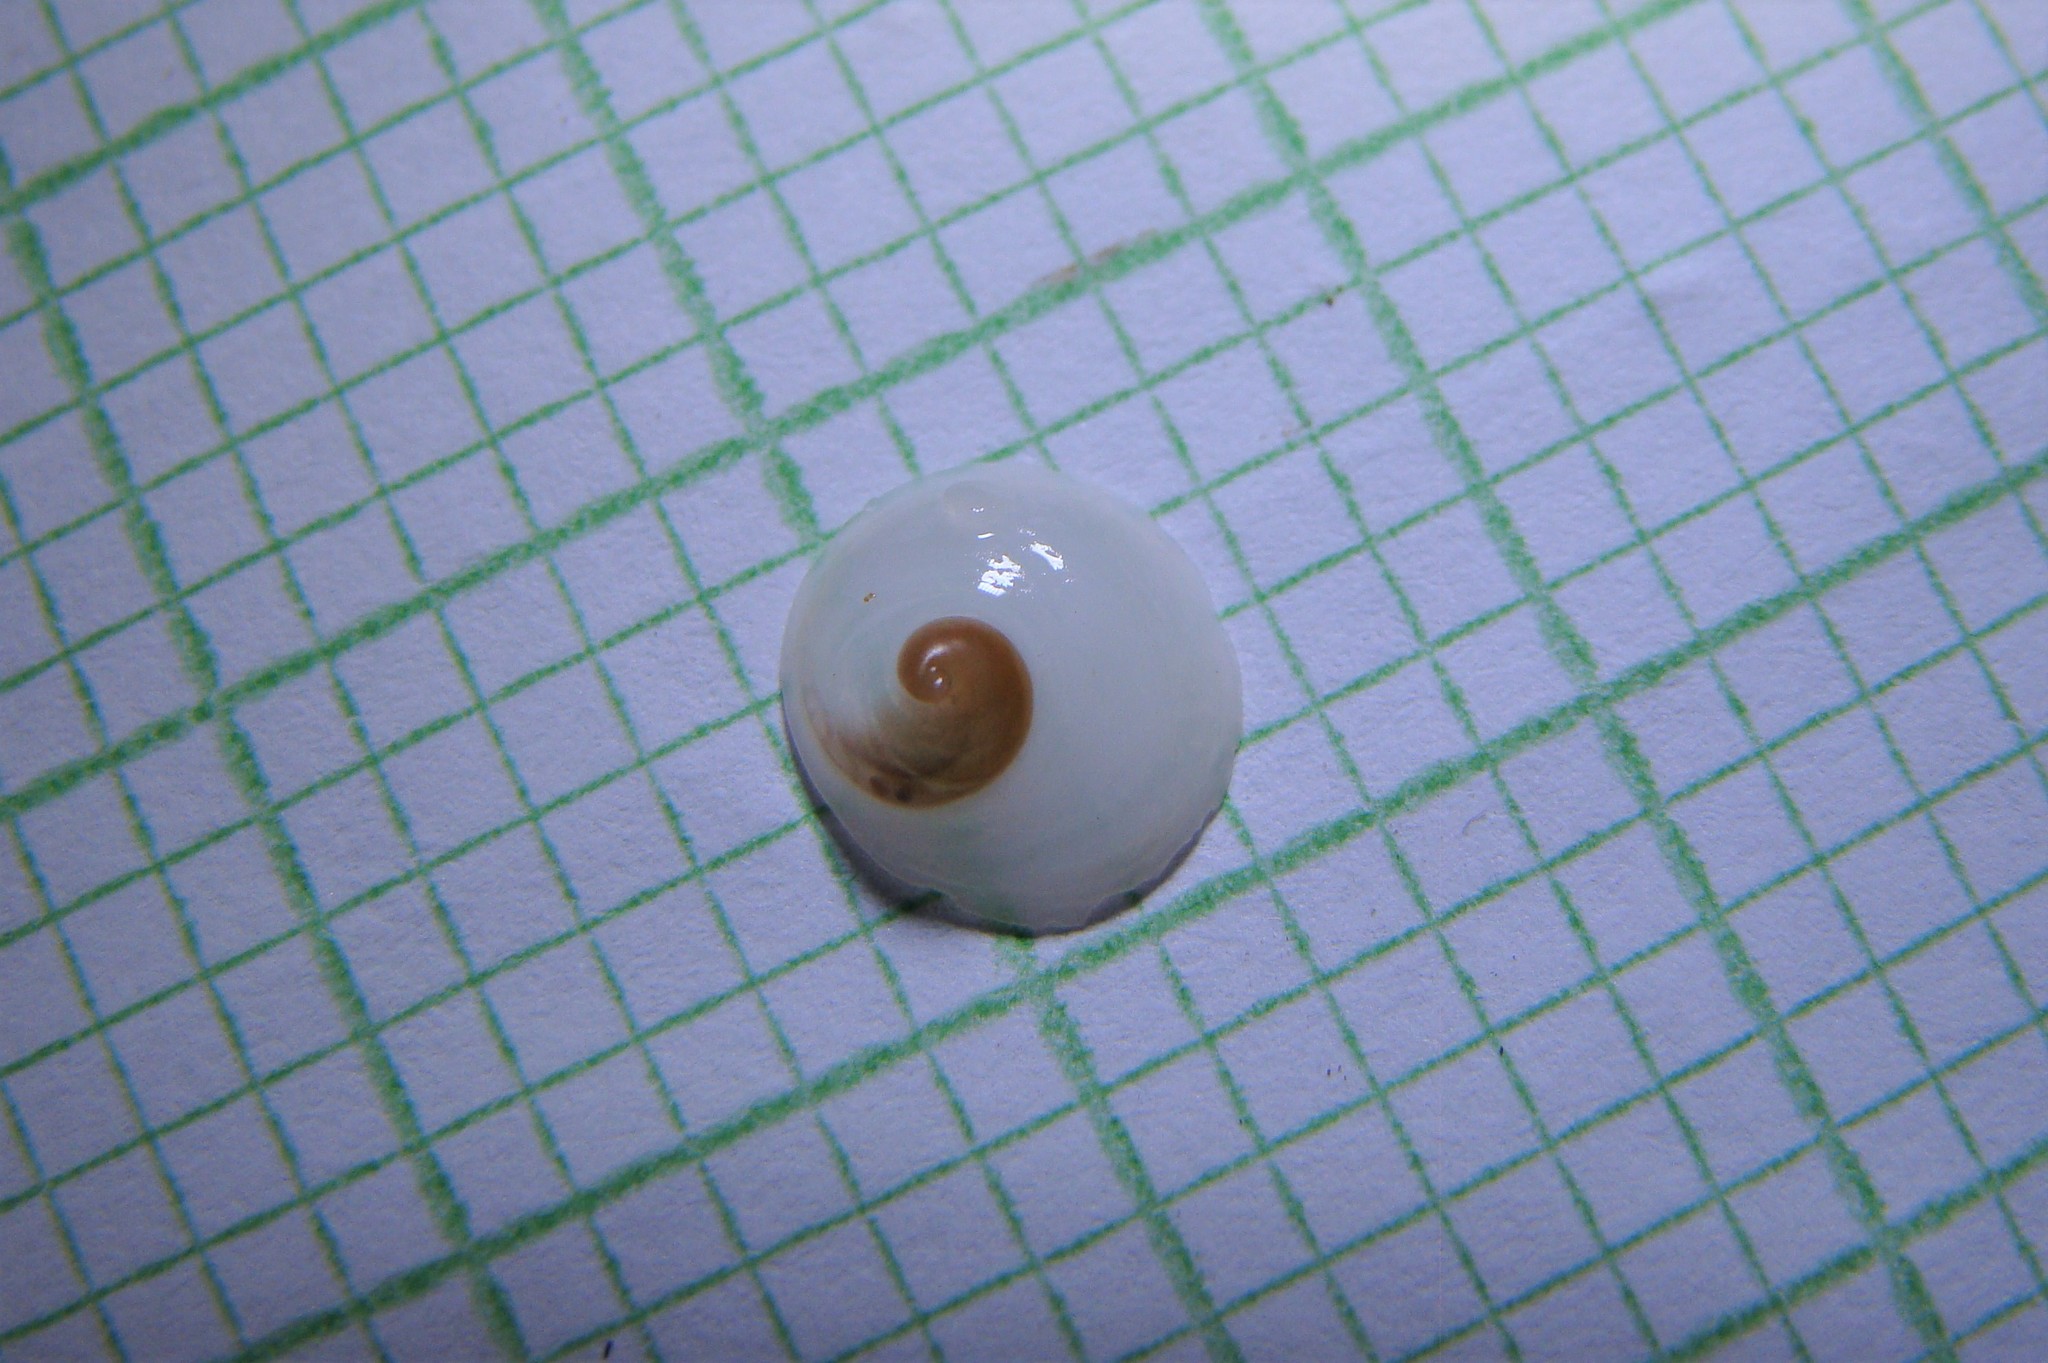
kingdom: Animalia
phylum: Mollusca
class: Gastropoda
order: Littorinimorpha
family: Calyptraeidae
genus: Sigapatella
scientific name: Sigapatella tenuis
